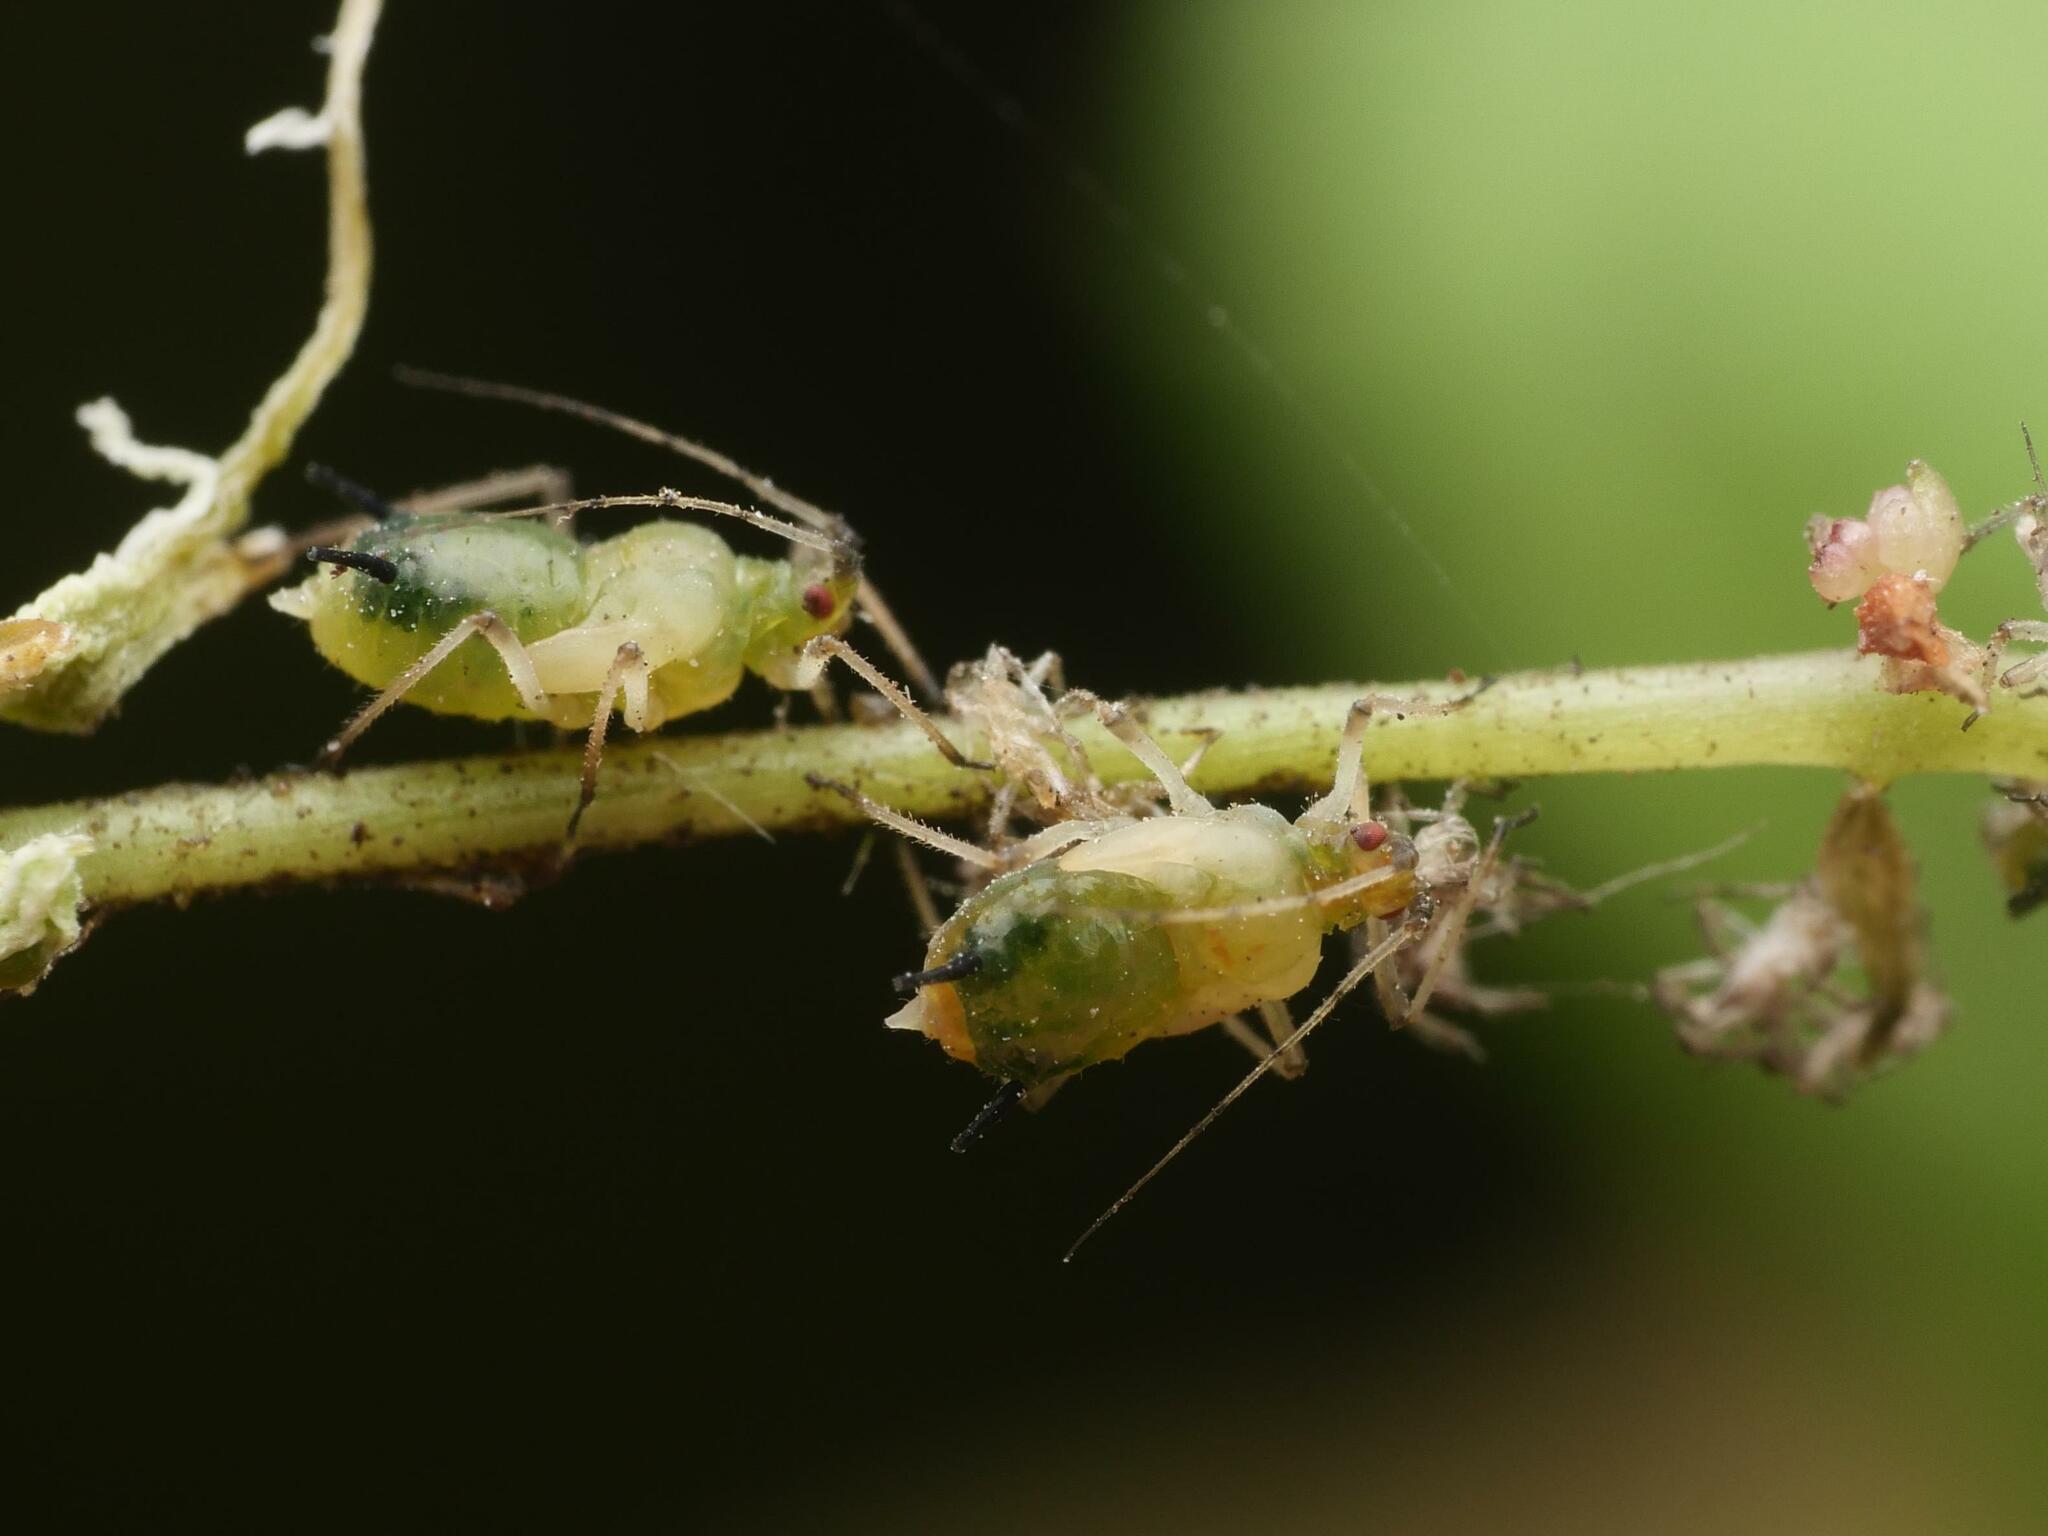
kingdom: Animalia
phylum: Arthropoda
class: Insecta
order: Hemiptera
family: Aphididae
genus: Impatientinum
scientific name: Impatientinum asiaticum
